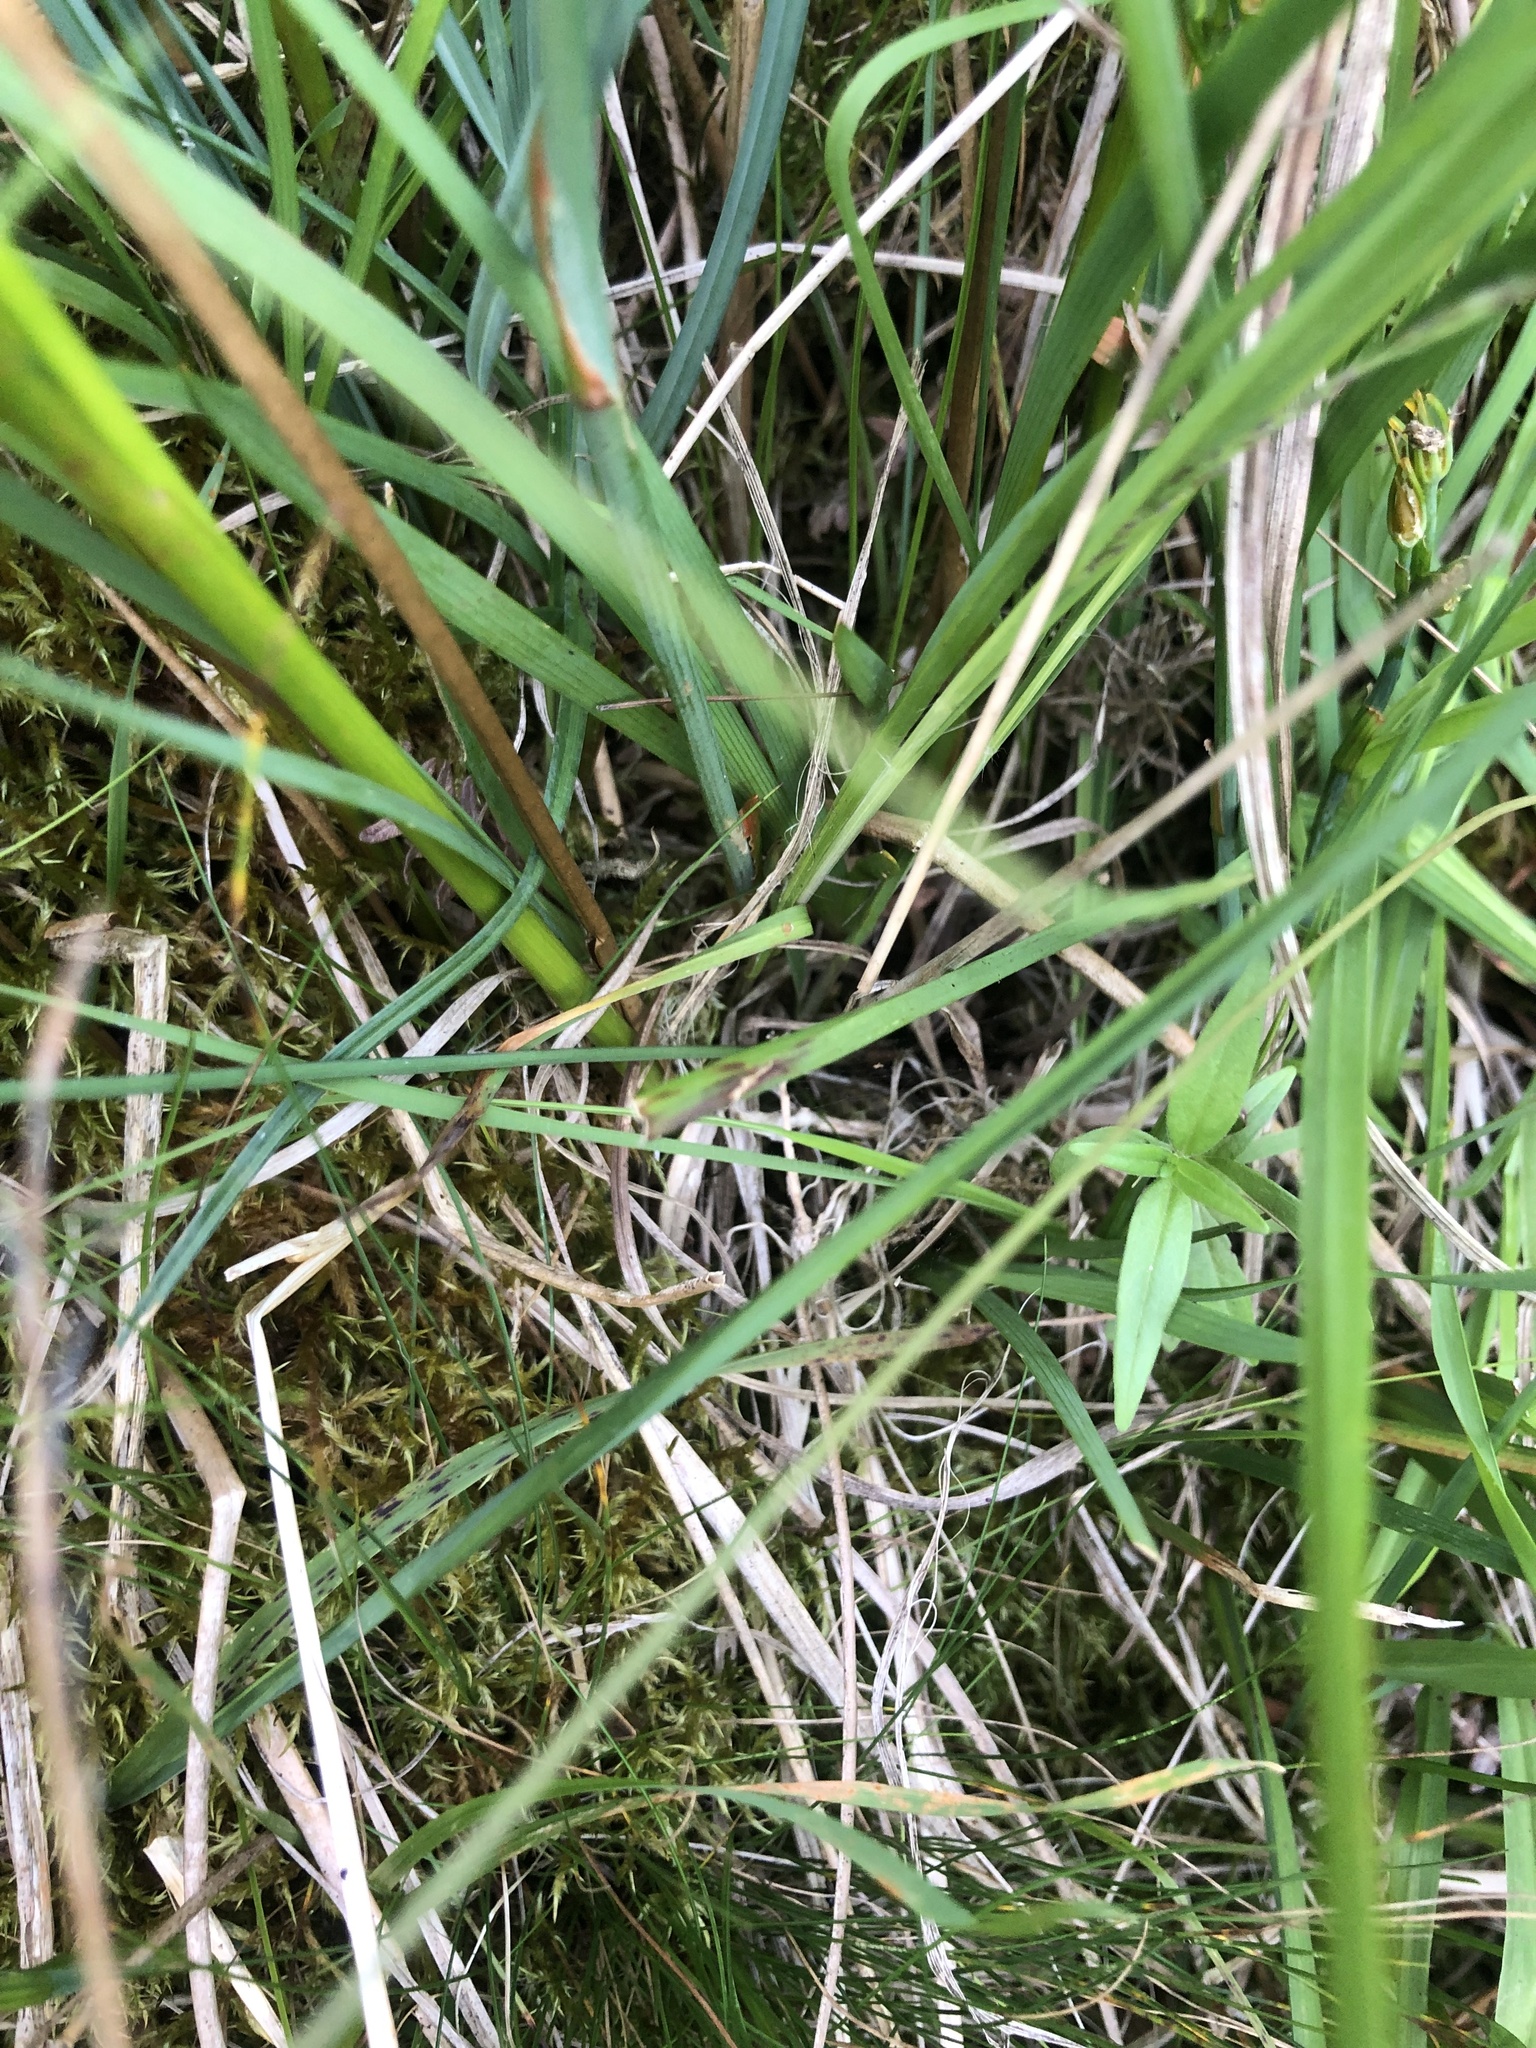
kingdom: Plantae
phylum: Tracheophyta
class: Liliopsida
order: Poales
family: Cyperaceae
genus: Carex
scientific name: Carex panicea
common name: Carnation sedge
